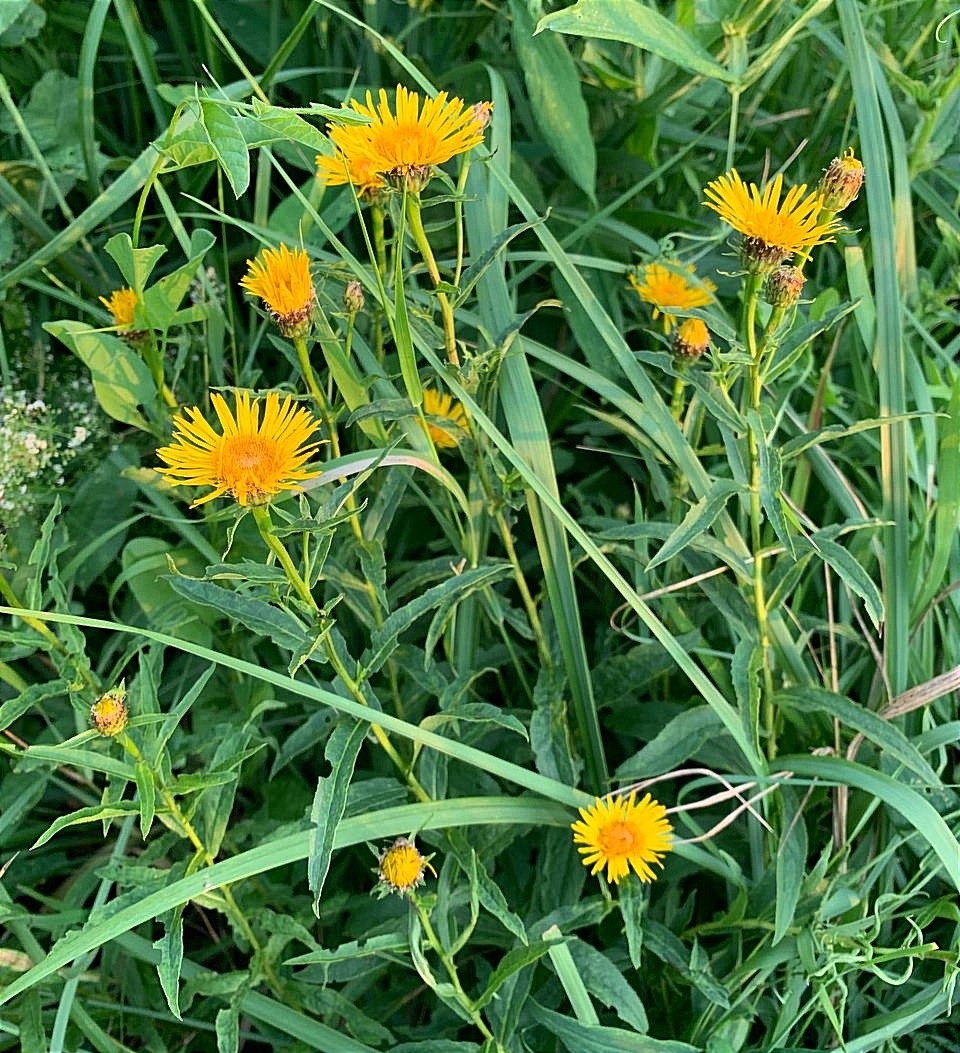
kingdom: Plantae
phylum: Tracheophyta
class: Magnoliopsida
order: Asterales
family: Asteraceae
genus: Pentanema
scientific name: Pentanema salicinum
